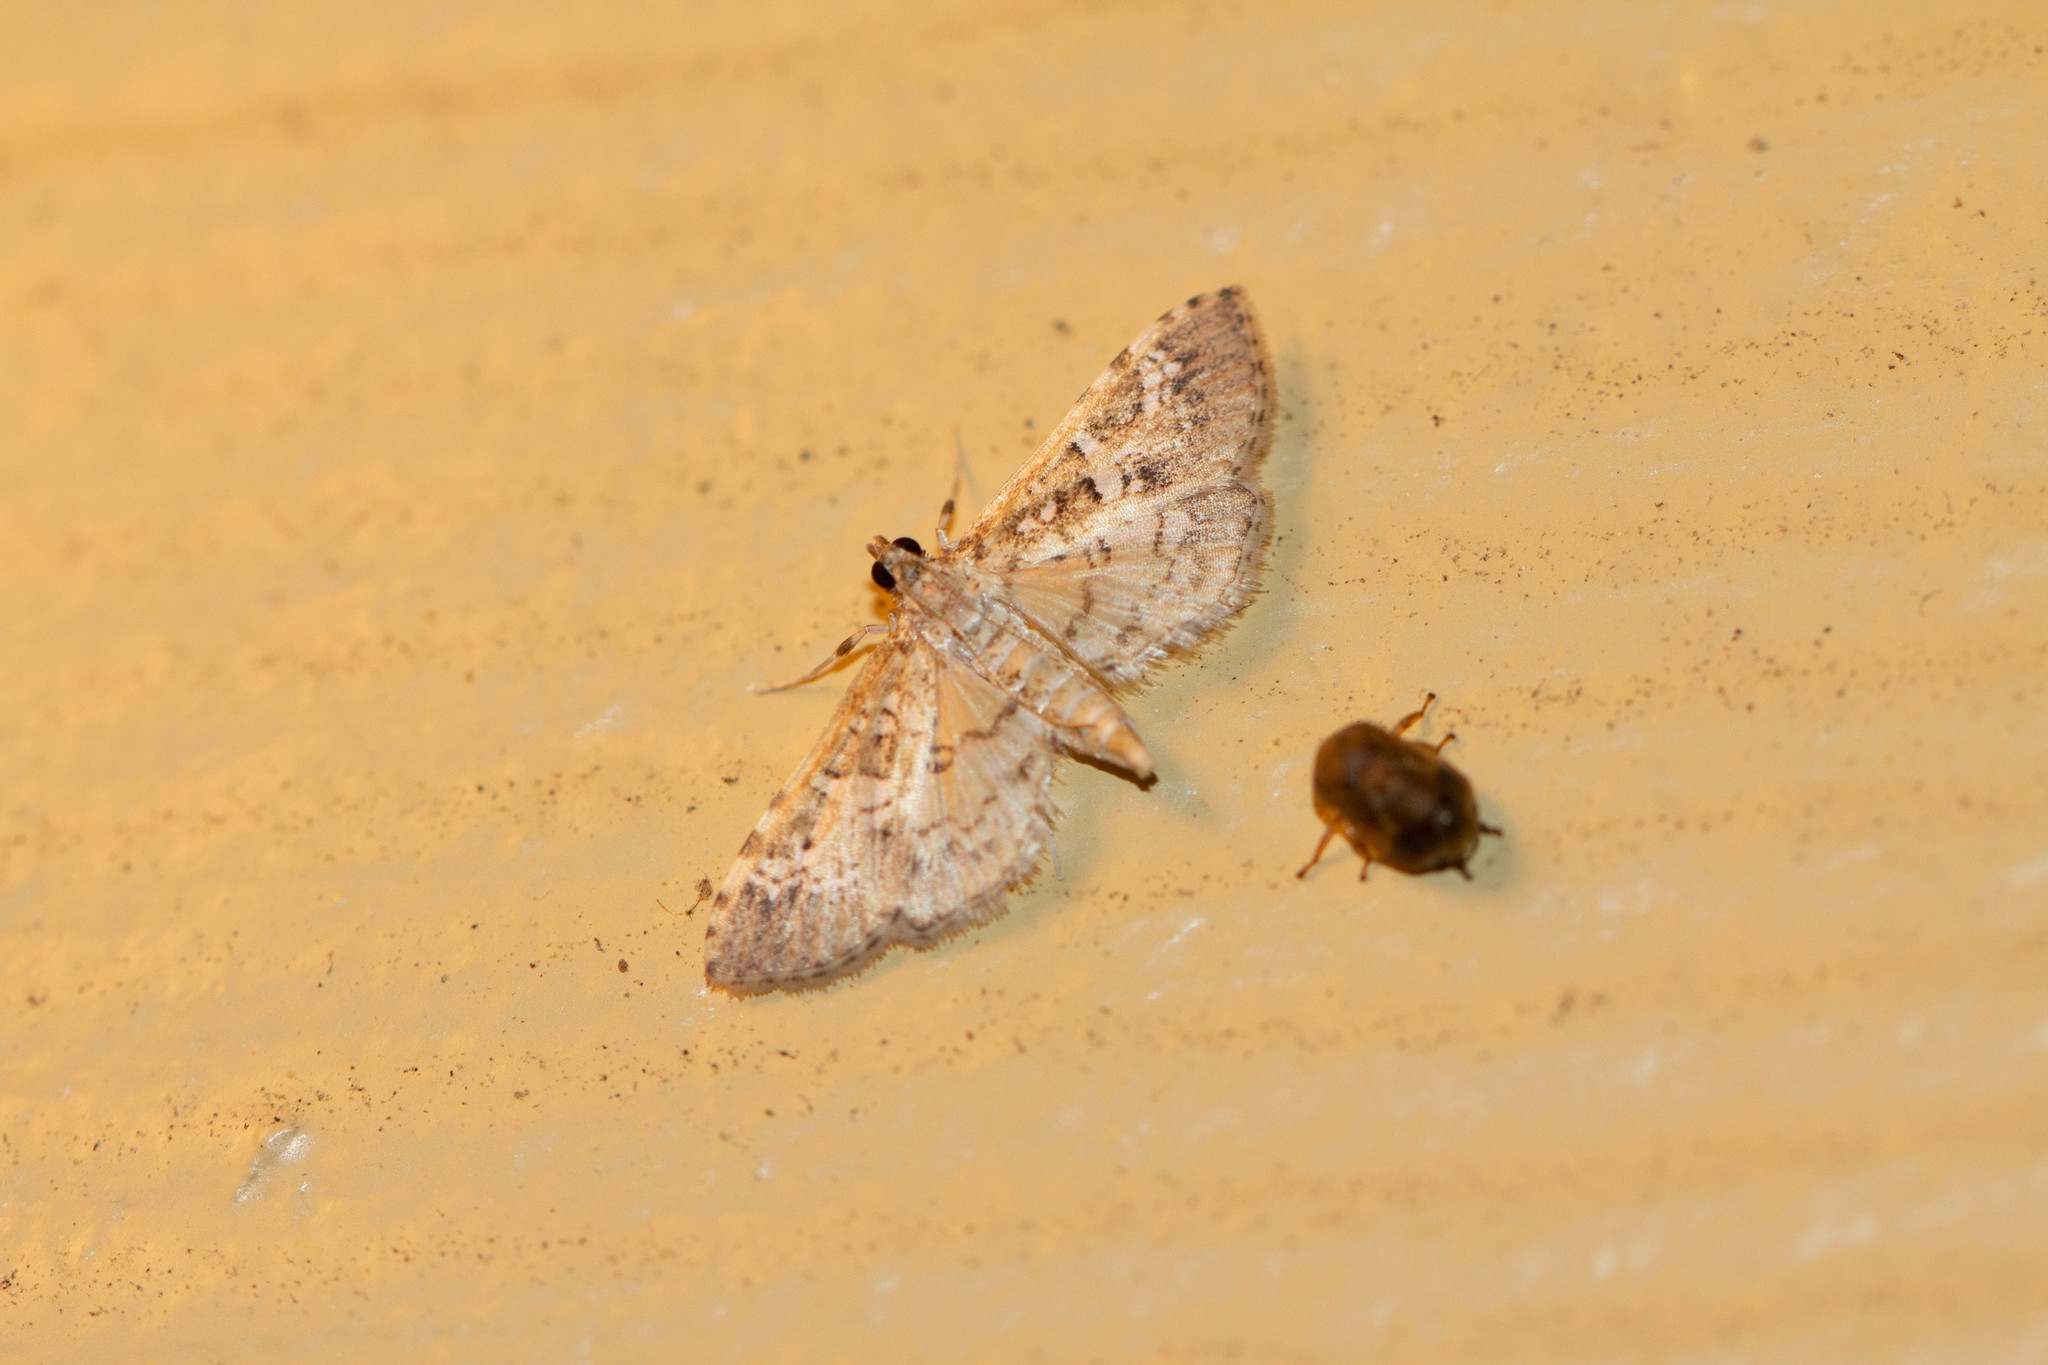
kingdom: Animalia
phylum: Arthropoda
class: Insecta
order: Lepidoptera
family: Crambidae
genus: Samea
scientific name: Samea multiplicalis
